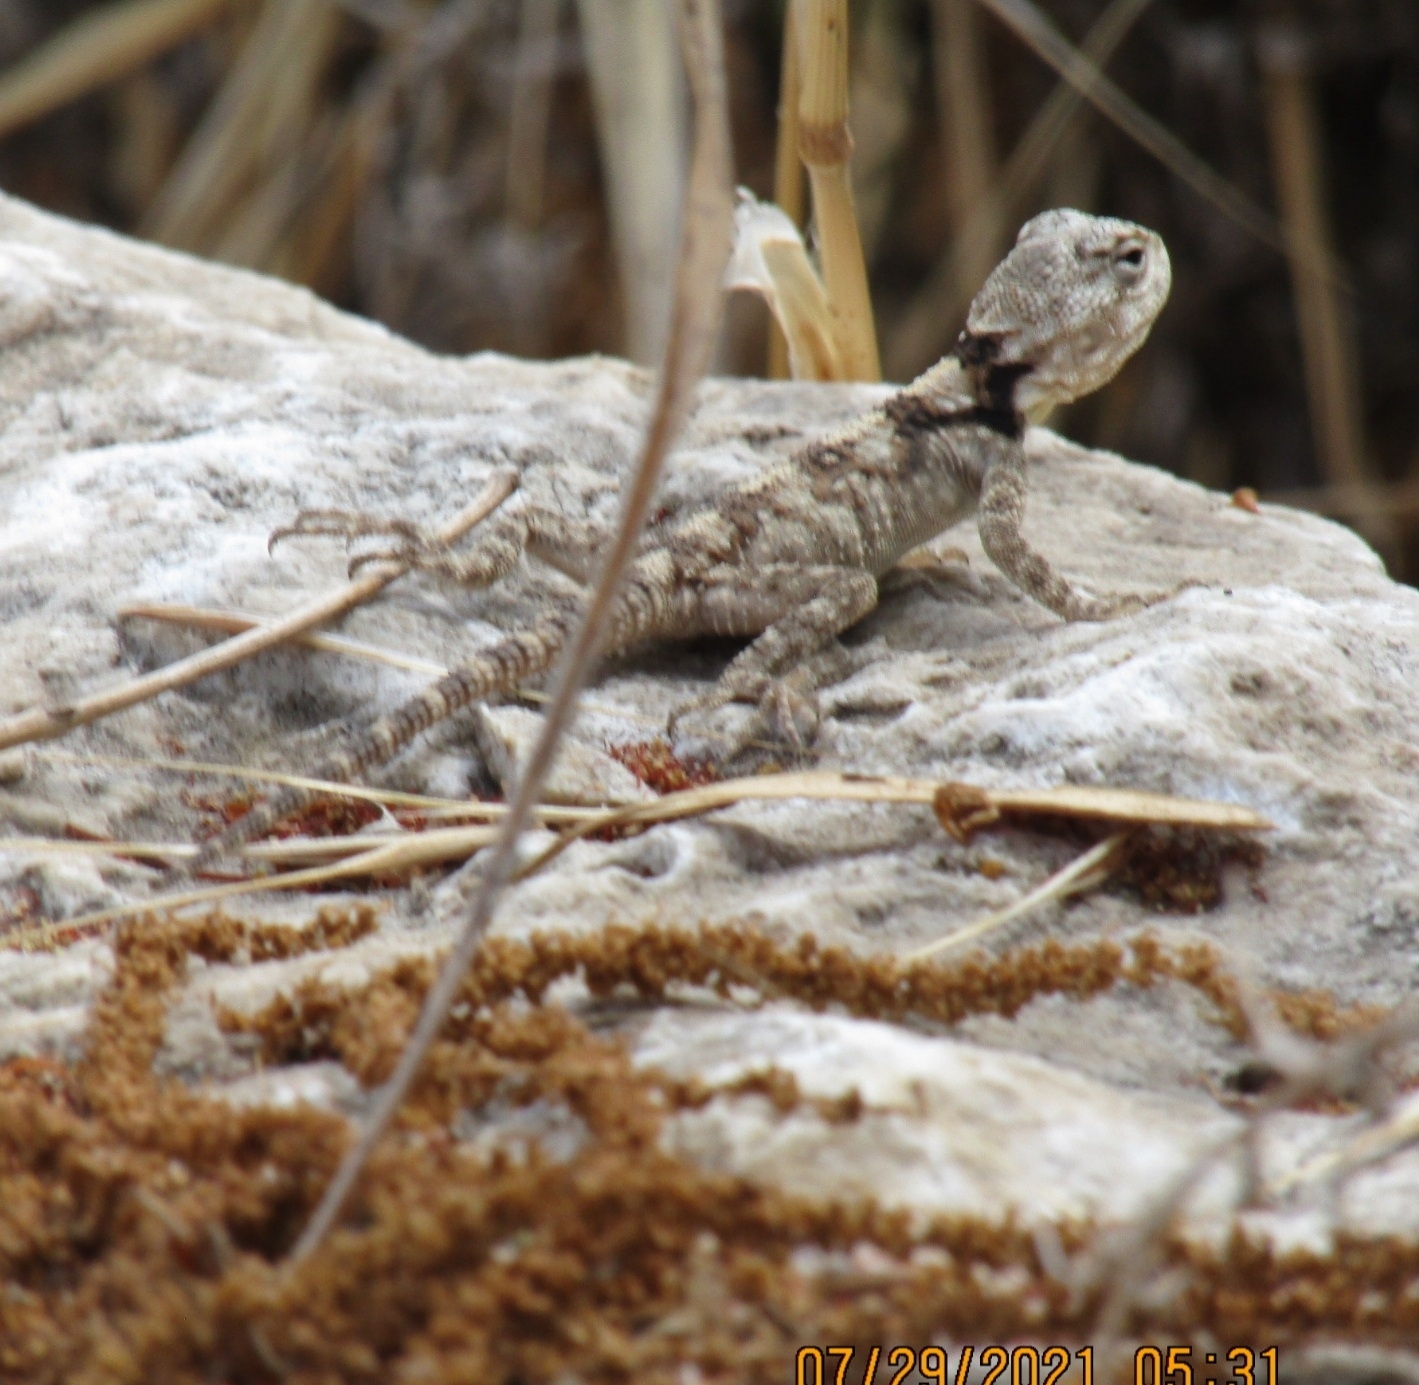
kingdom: Animalia
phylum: Chordata
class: Squamata
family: Agamidae
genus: Laudakia
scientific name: Laudakia vulgaris
